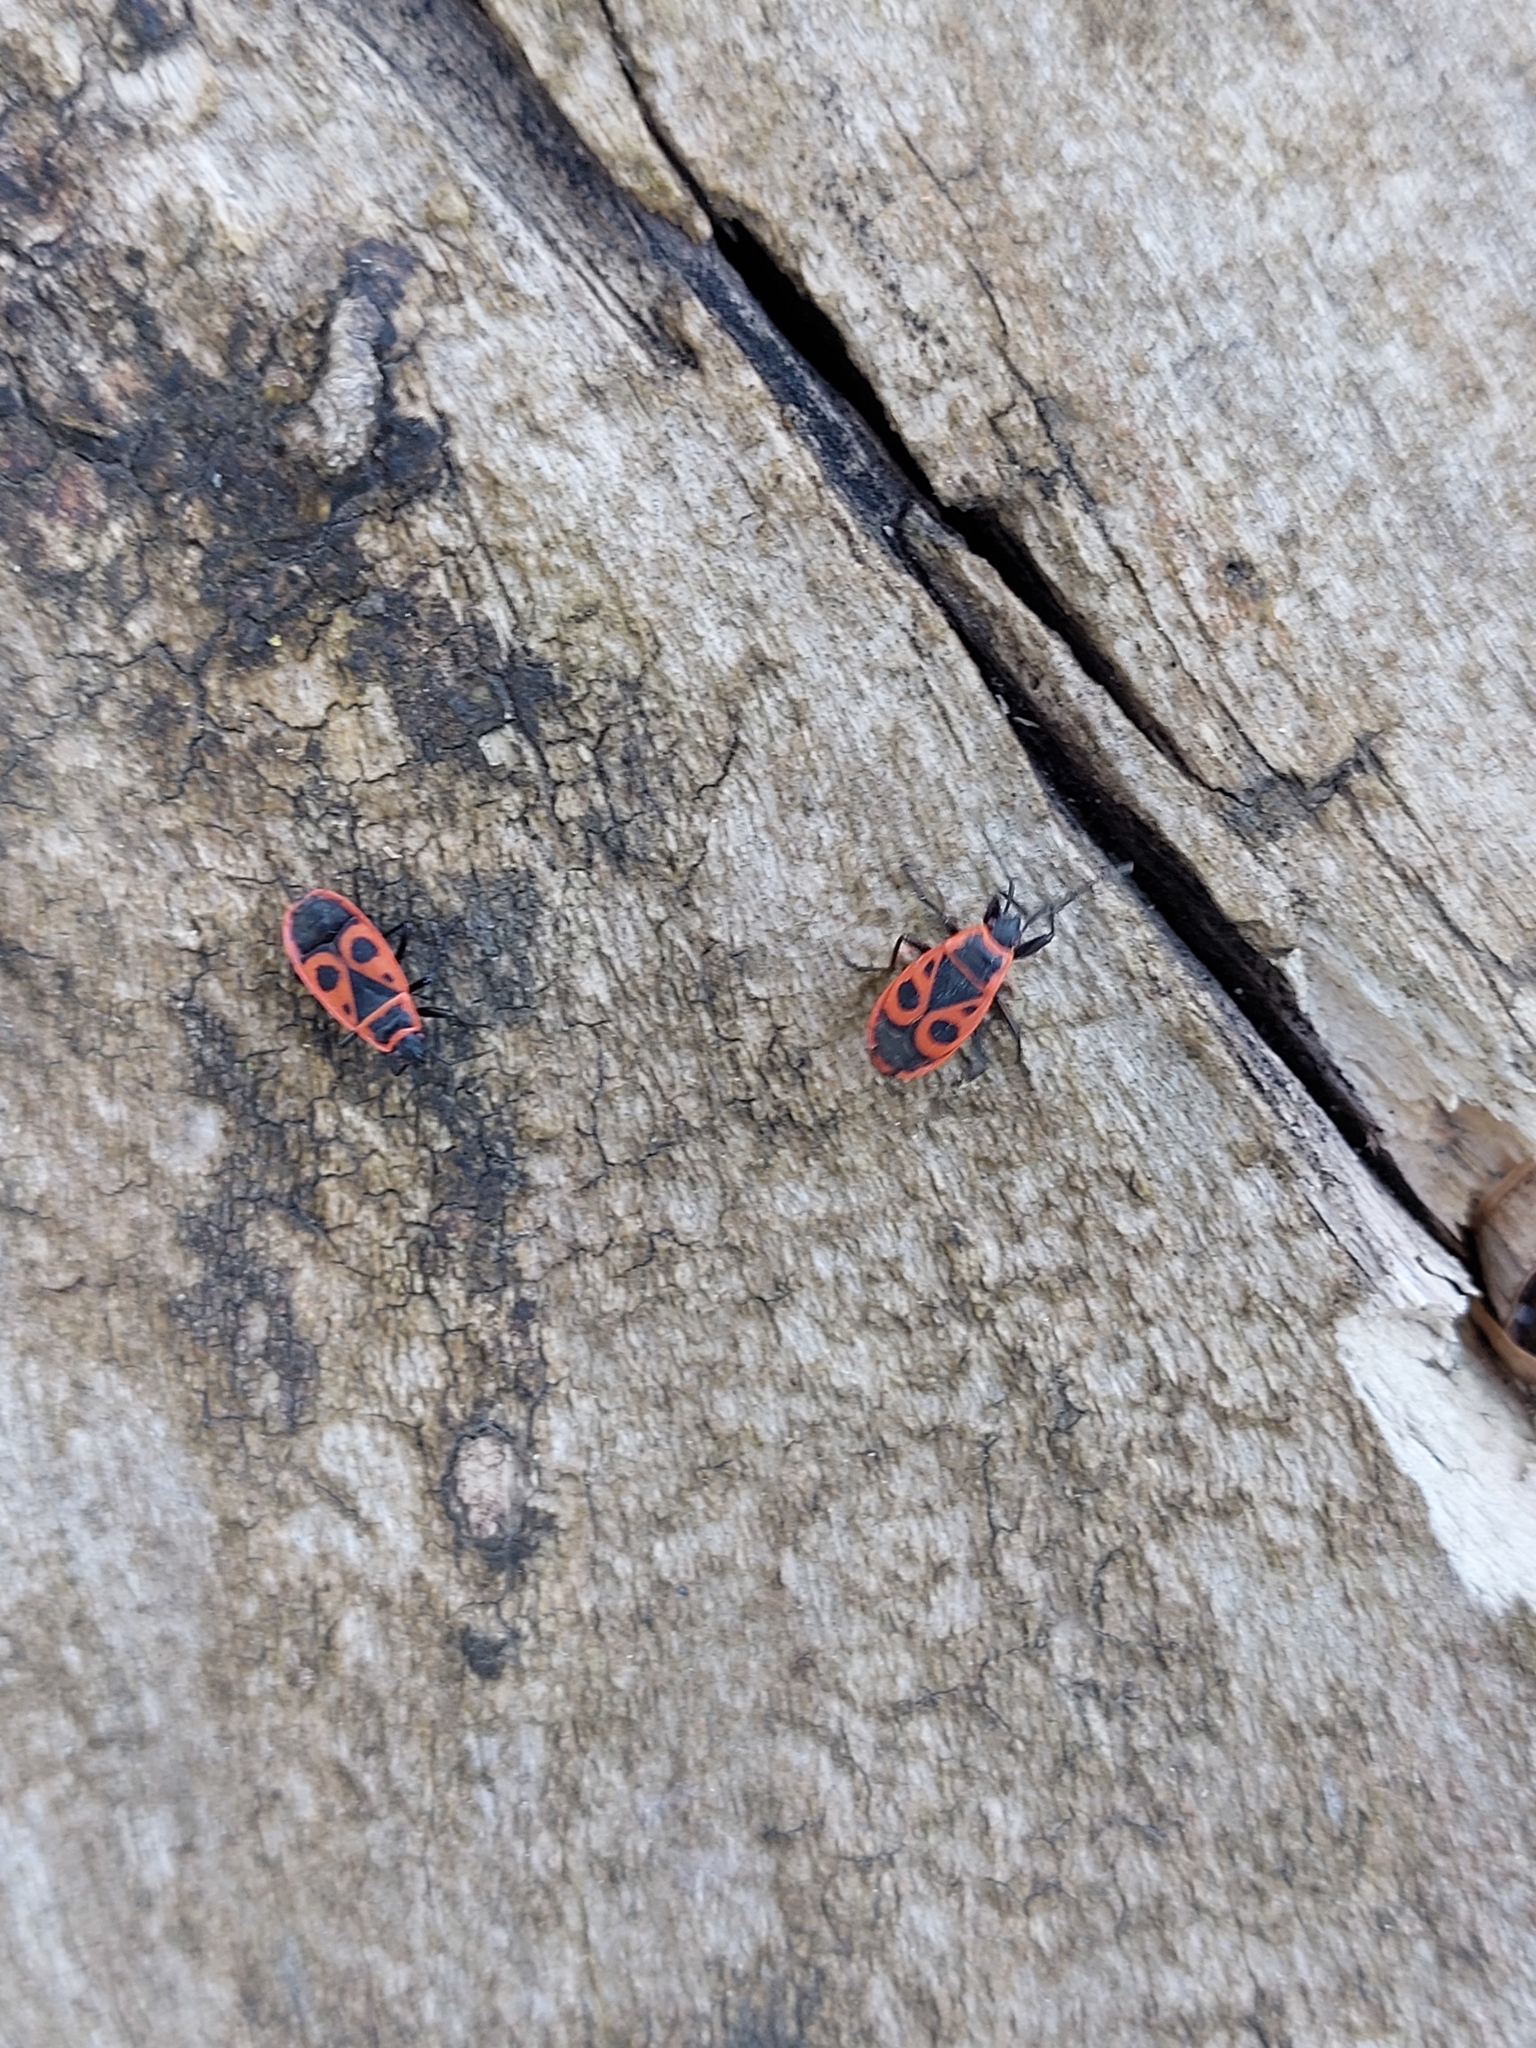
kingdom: Animalia
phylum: Arthropoda
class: Insecta
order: Hemiptera
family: Pyrrhocoridae
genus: Pyrrhocoris
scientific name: Pyrrhocoris apterus
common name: Firebug
